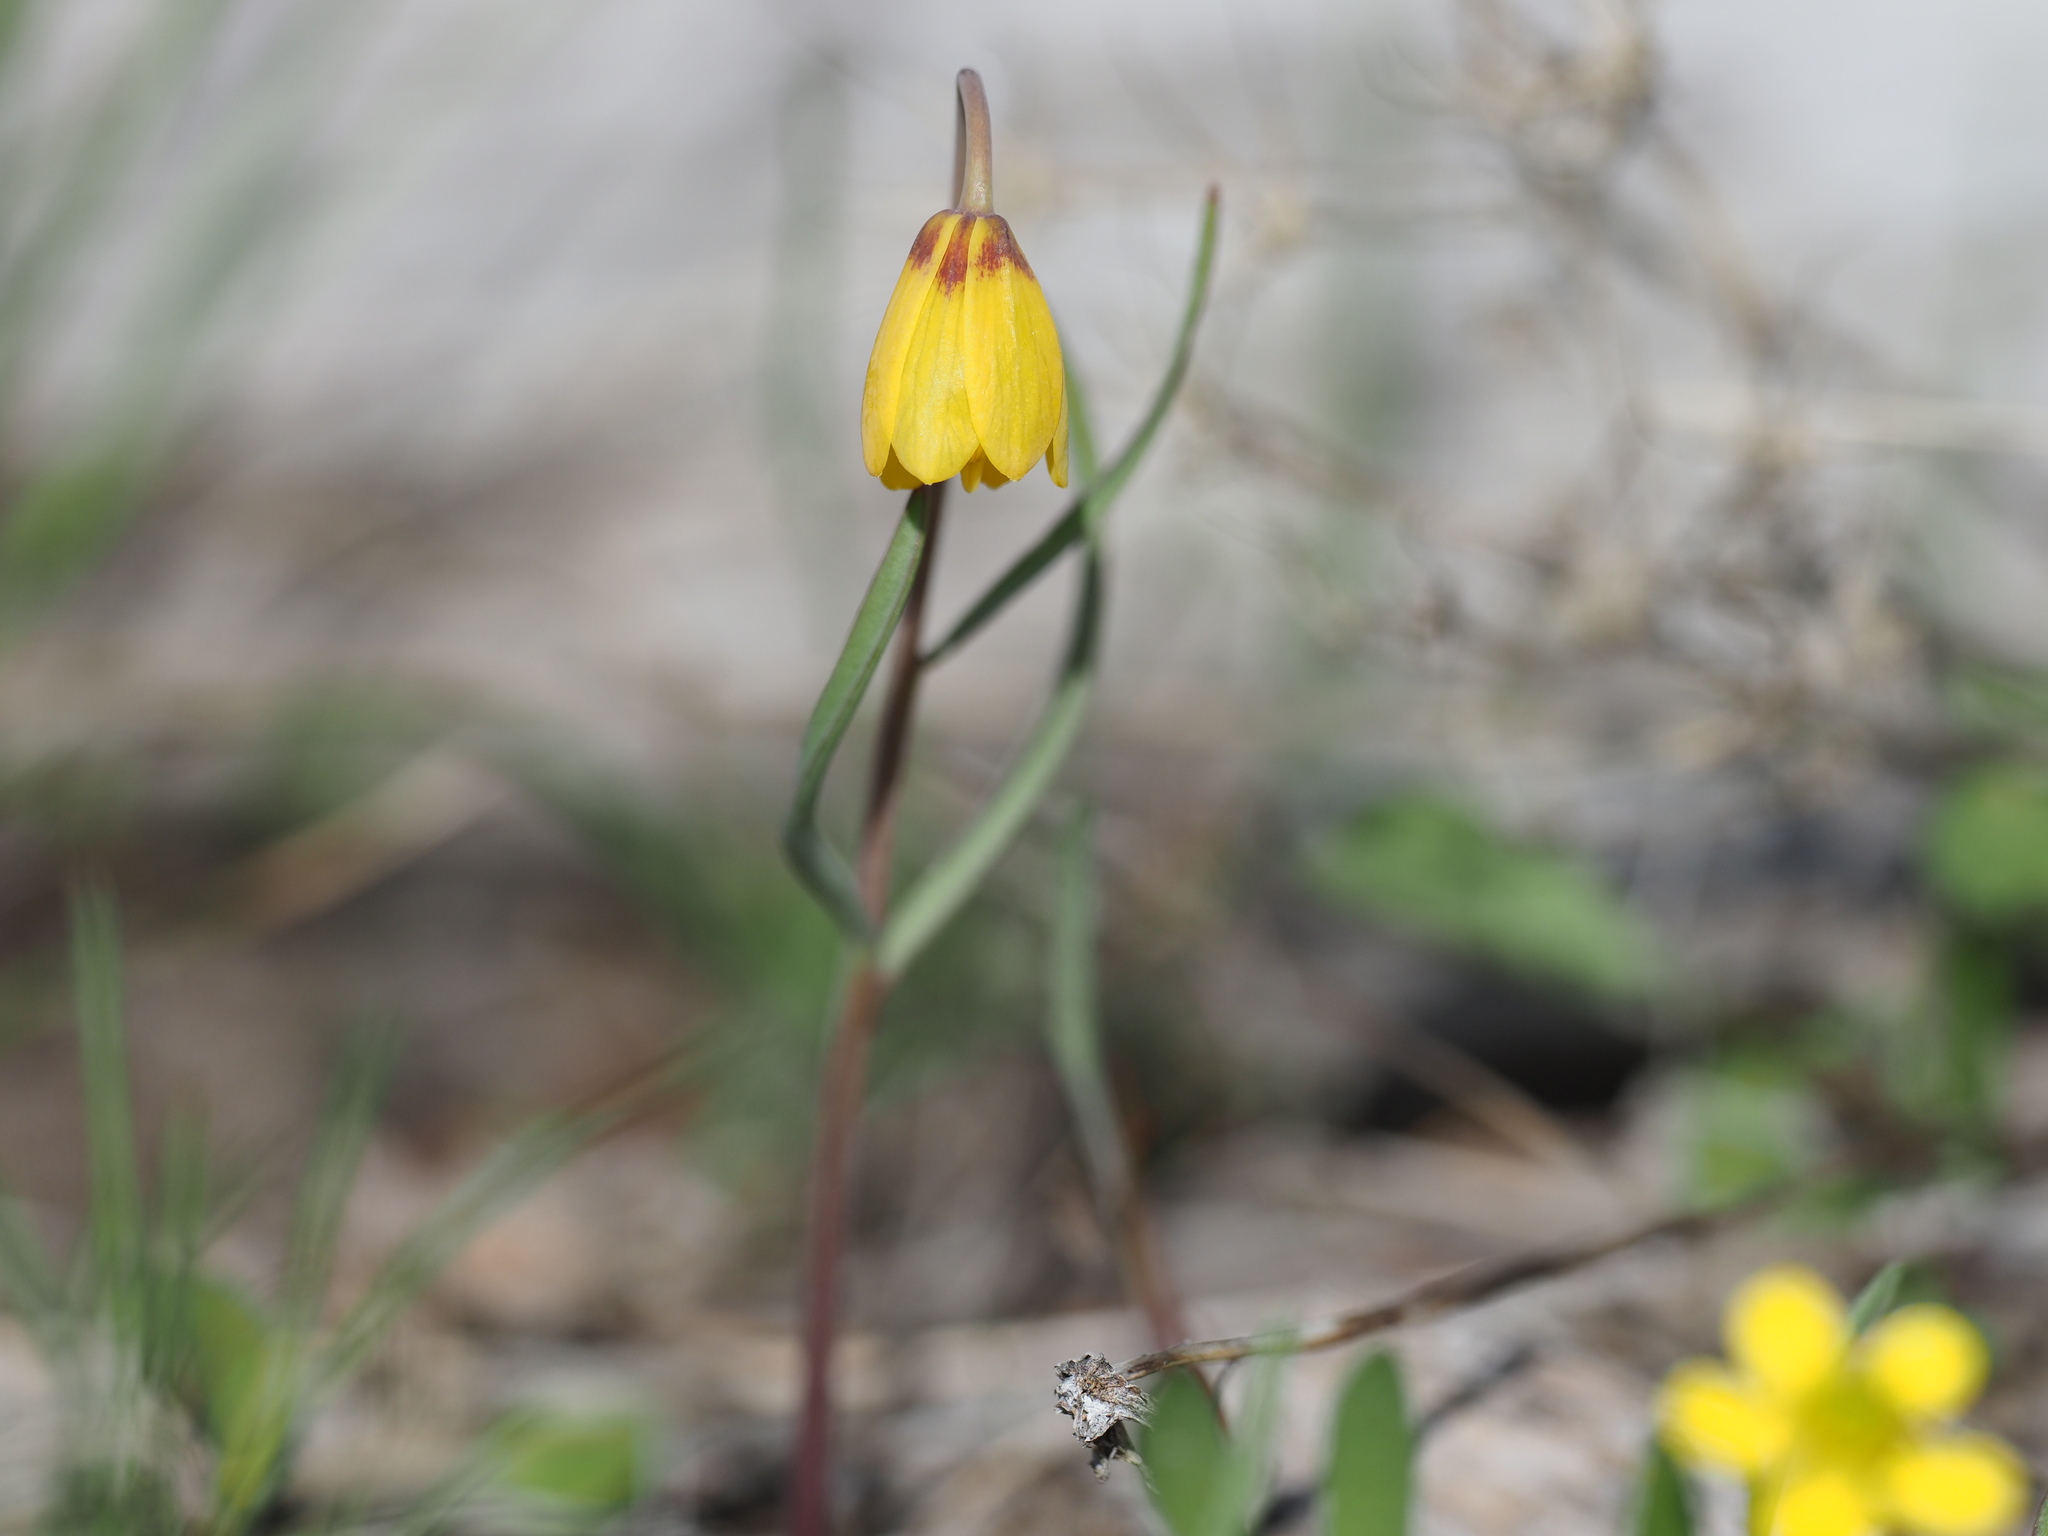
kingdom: Plantae
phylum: Tracheophyta
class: Liliopsida
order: Liliales
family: Liliaceae
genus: Fritillaria
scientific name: Fritillaria pudica
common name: Yellow fritillary
